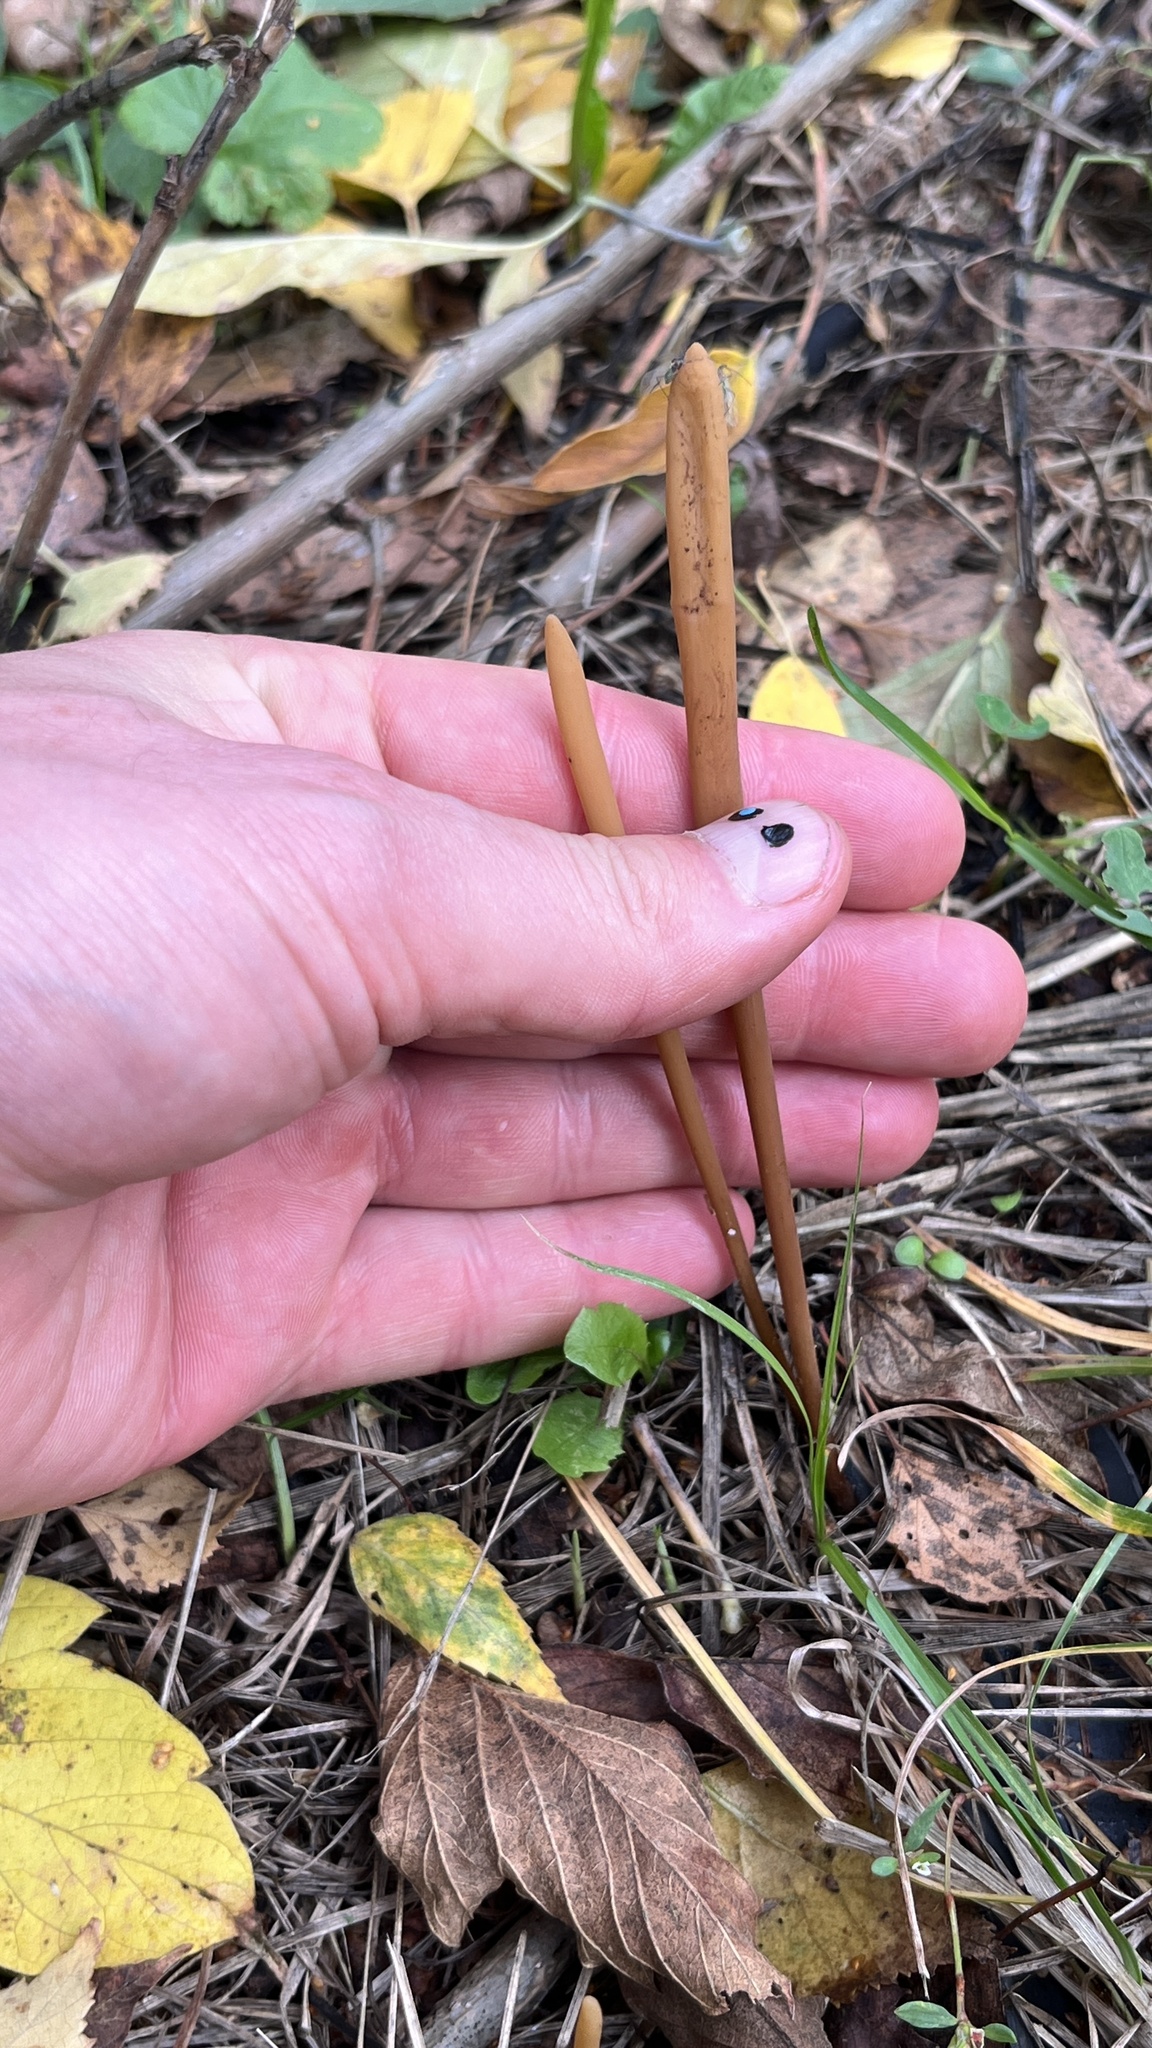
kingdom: Fungi
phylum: Basidiomycota
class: Agaricomycetes
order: Agaricales
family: Typhulaceae
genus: Typhula
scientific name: Typhula fistulosa
